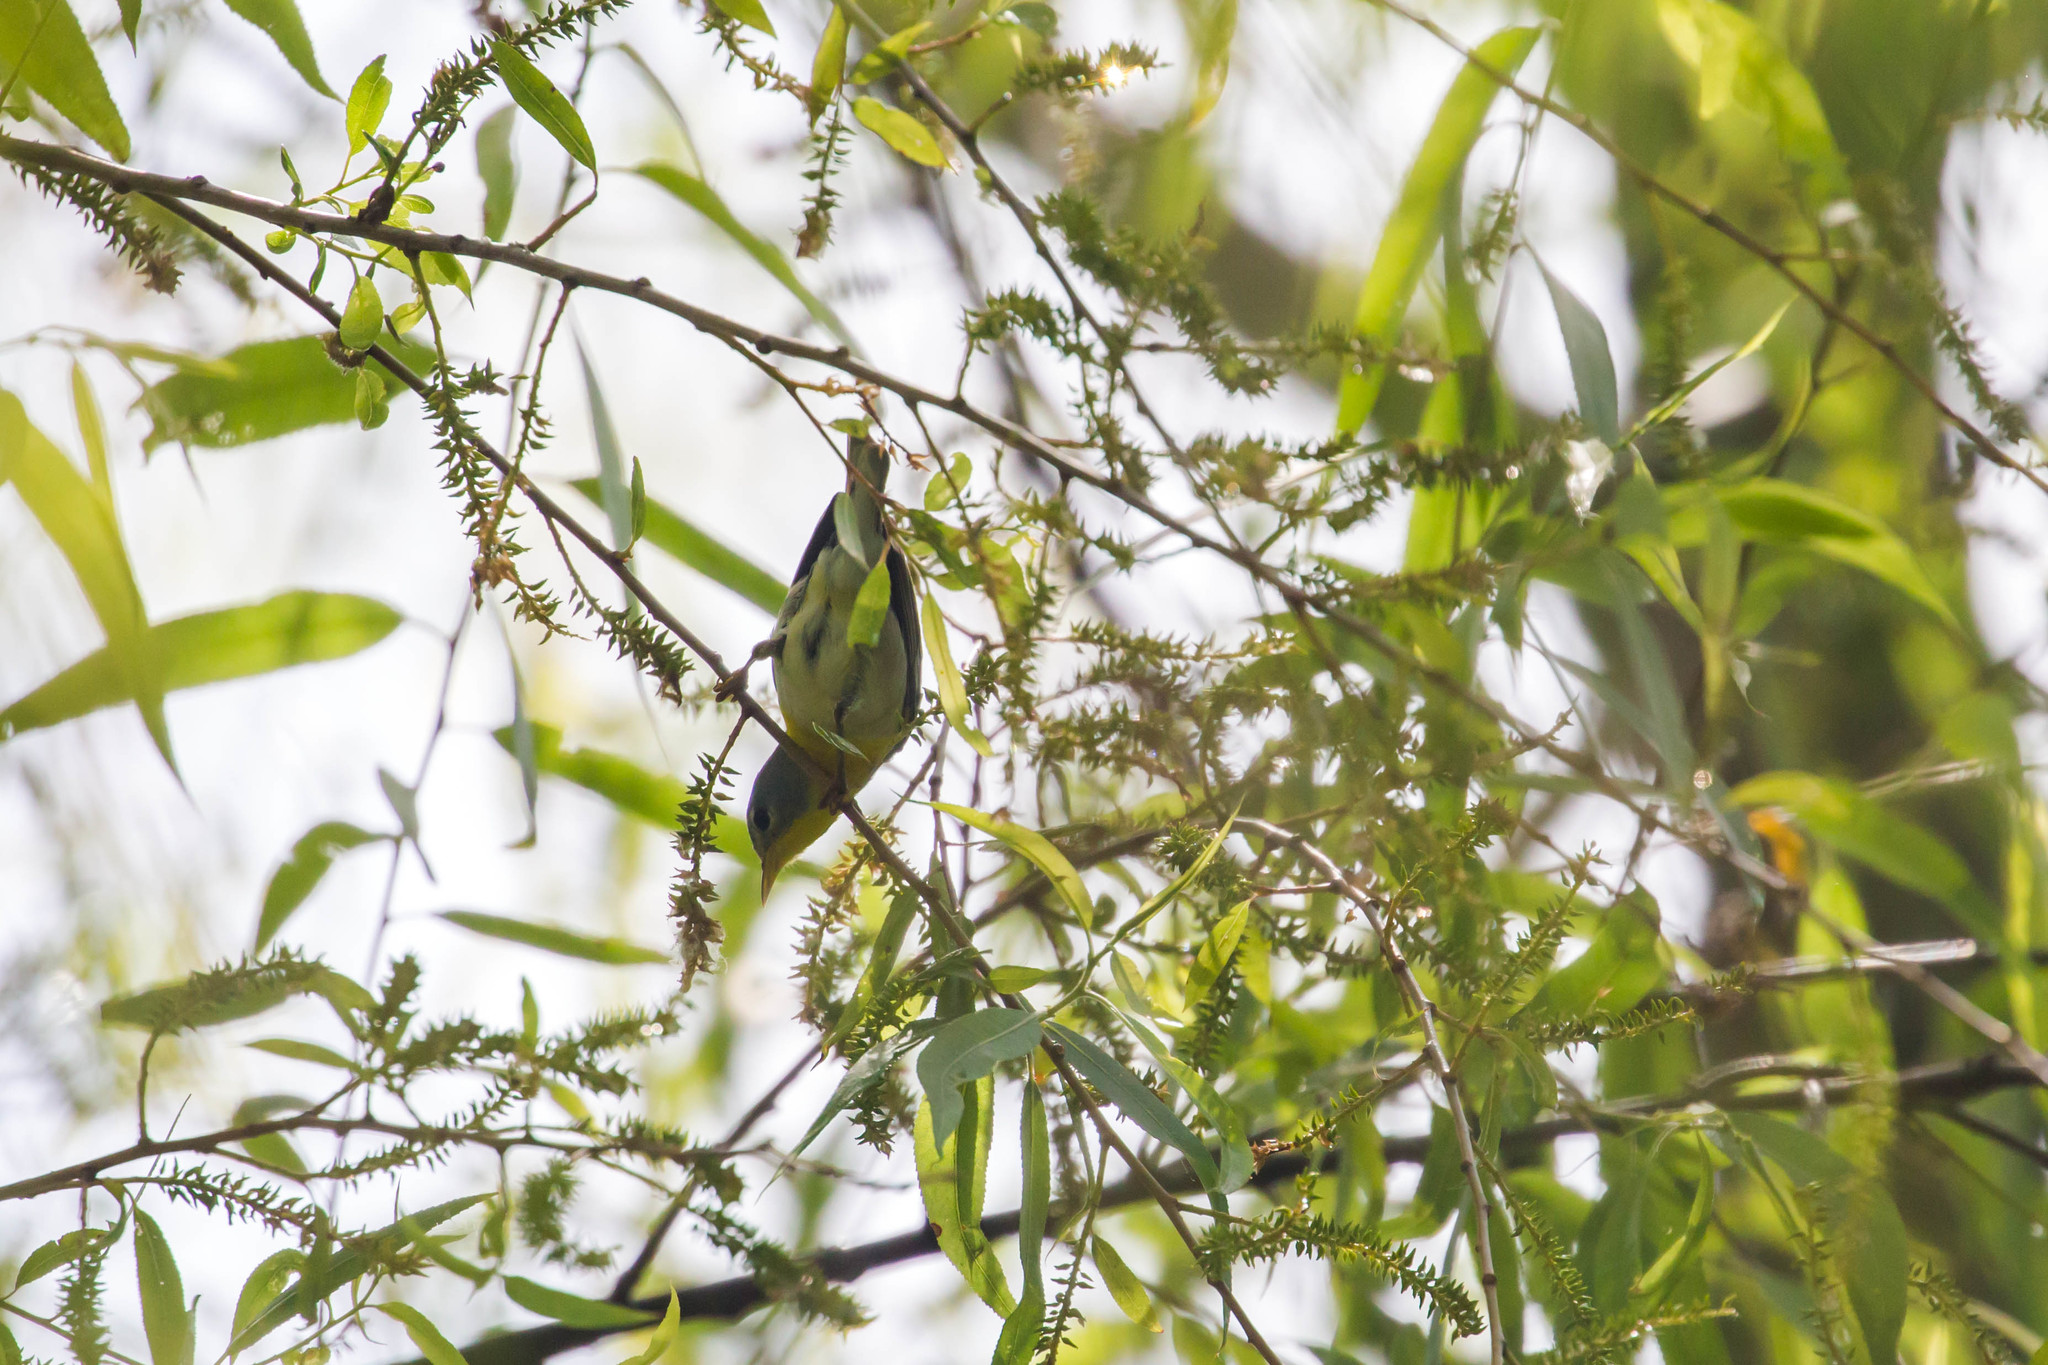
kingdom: Animalia
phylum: Chordata
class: Aves
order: Passeriformes
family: Parulidae
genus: Setophaga
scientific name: Setophaga americana
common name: Northern parula
